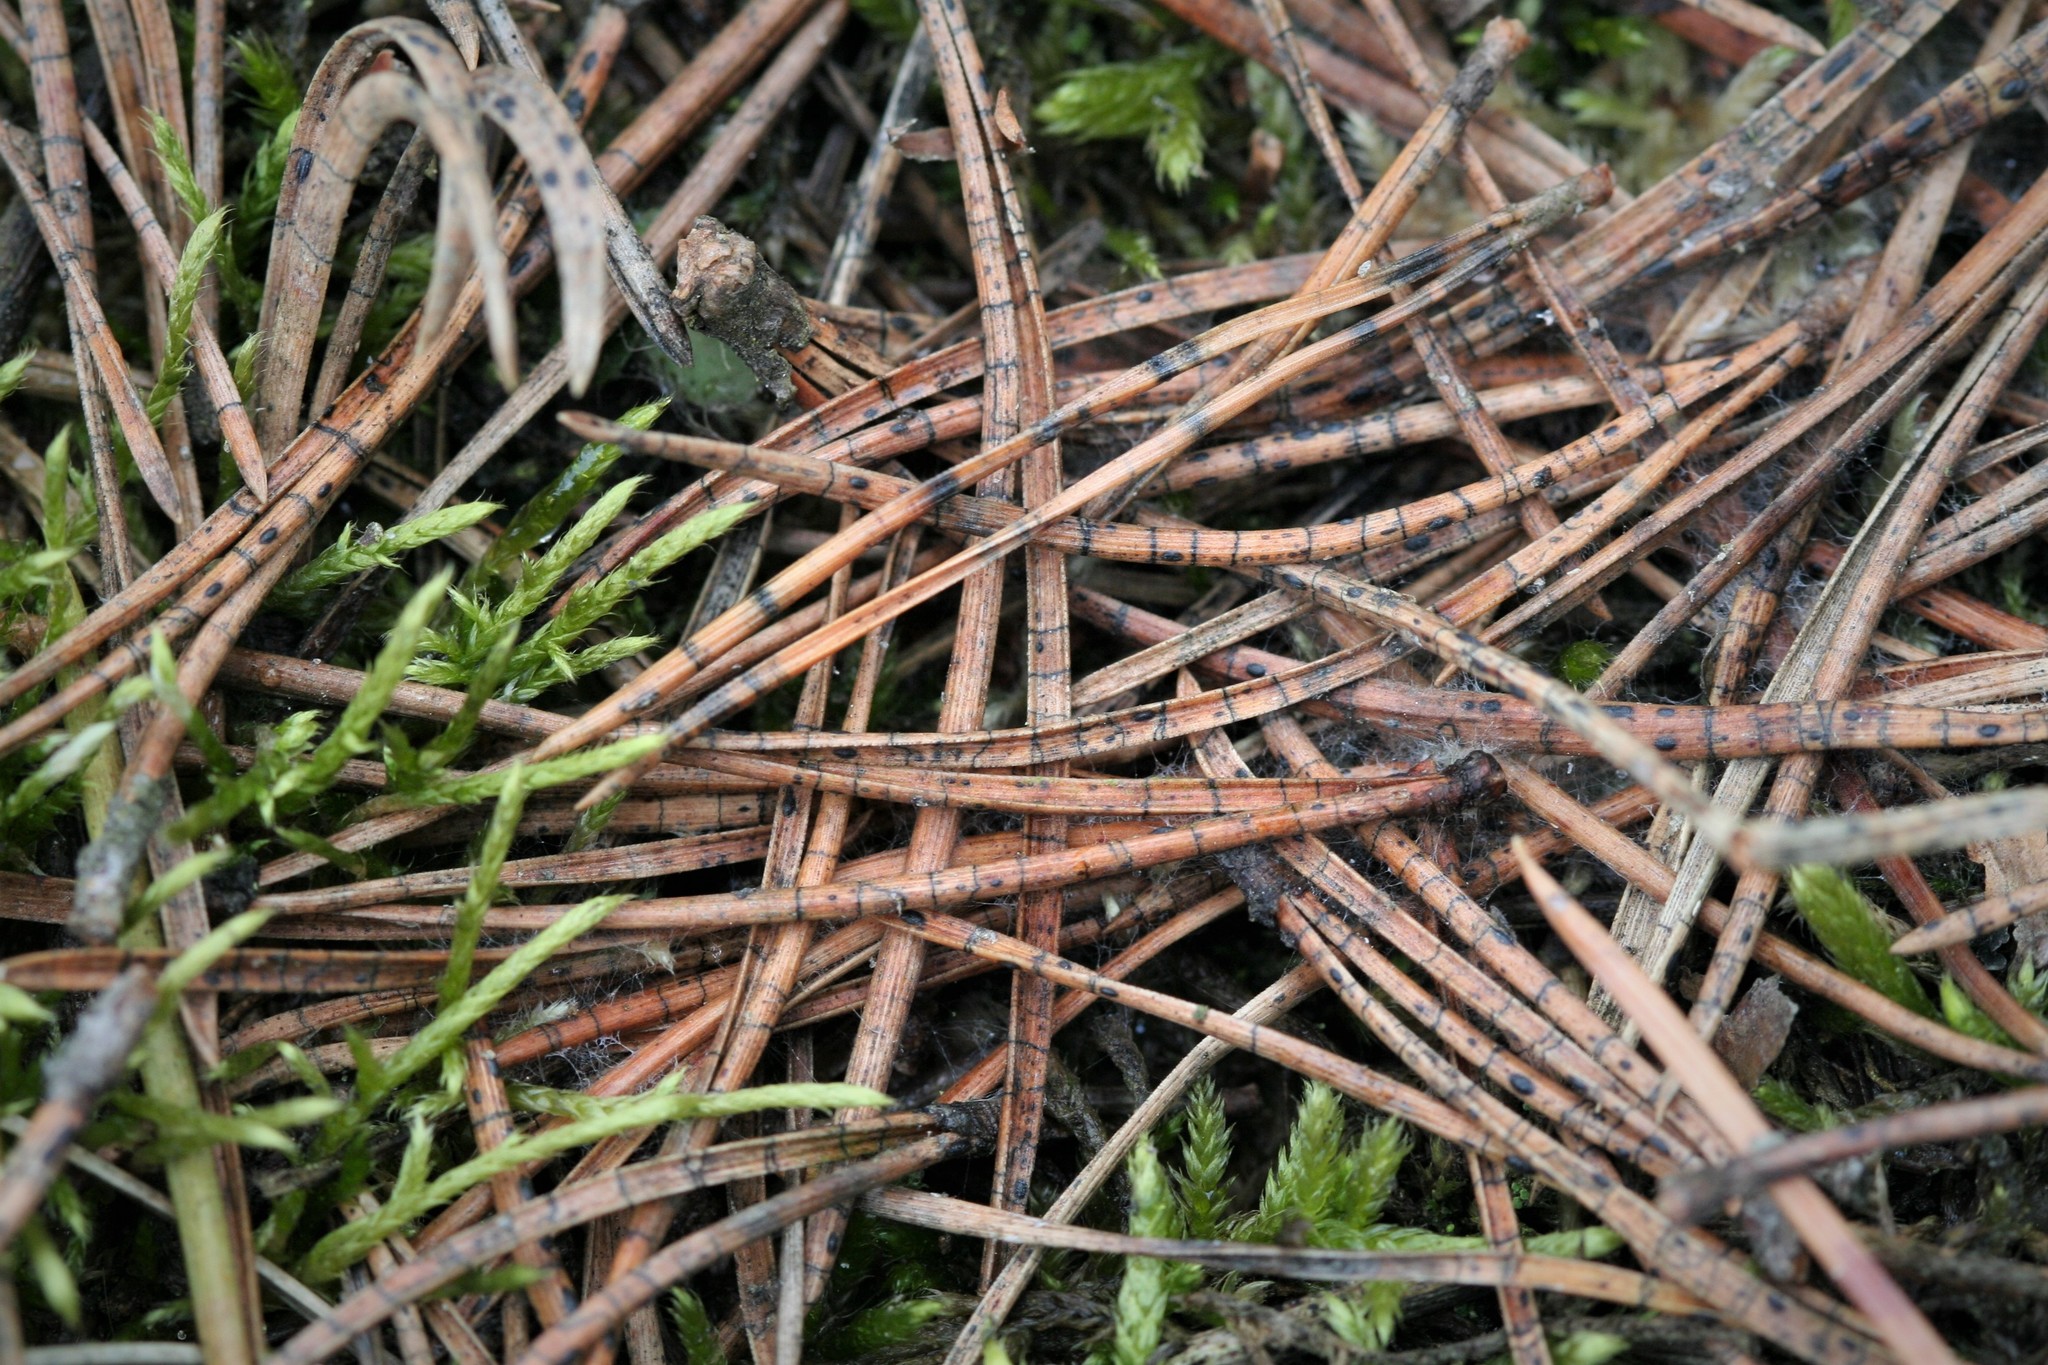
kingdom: Fungi
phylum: Ascomycota
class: Leotiomycetes
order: Rhytismatales
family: Rhytismataceae
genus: Lophodermium
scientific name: Lophodermium pinastri
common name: Pine needle split
